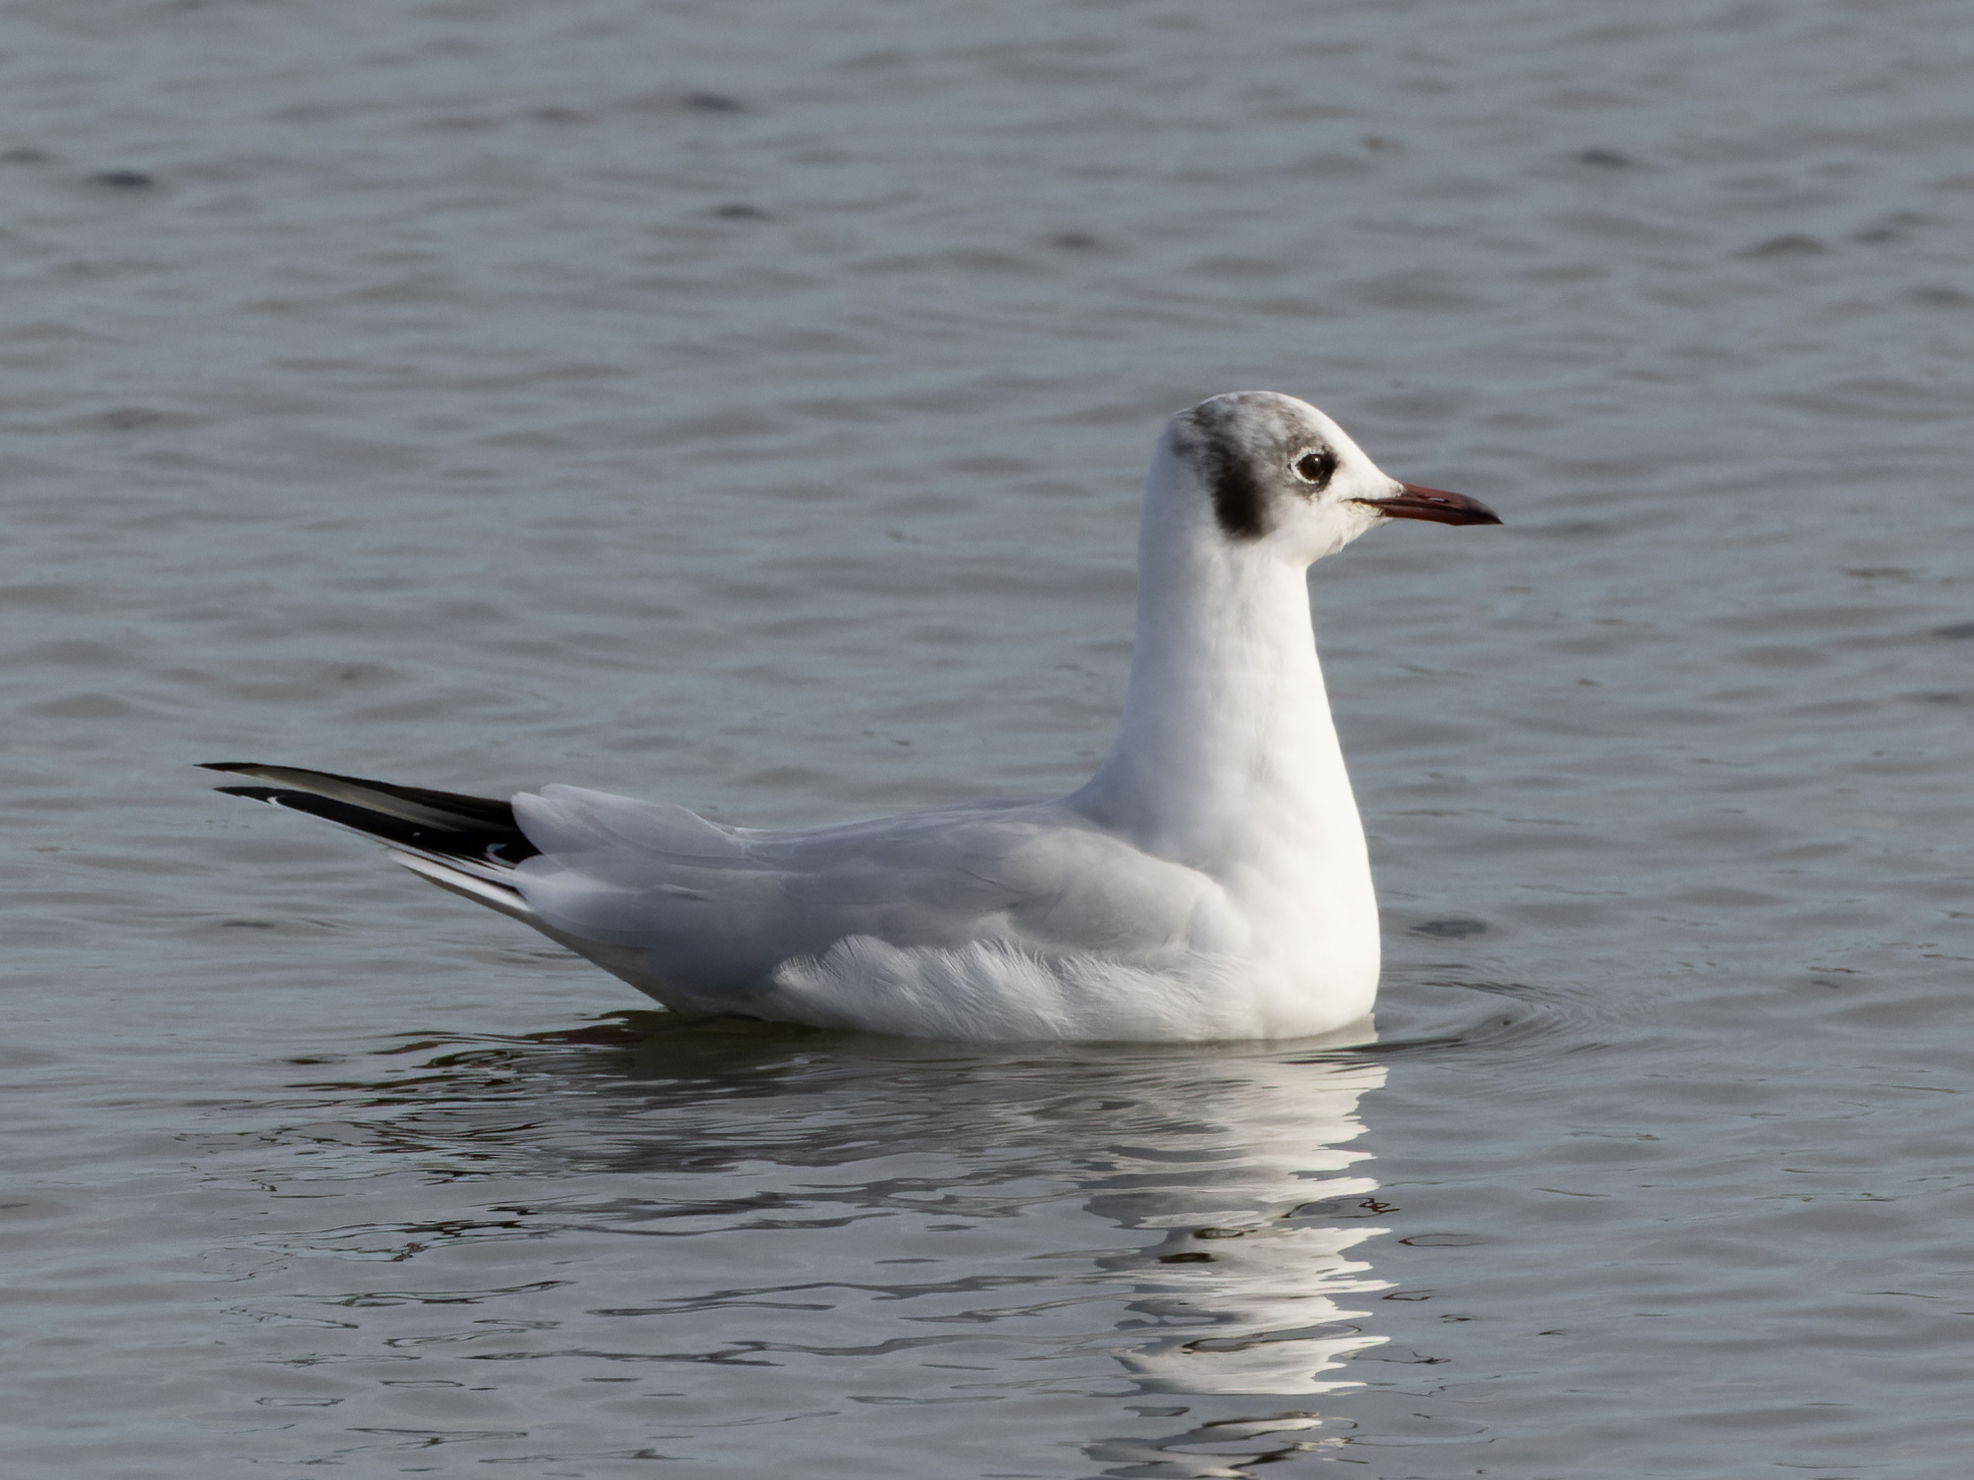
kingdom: Animalia
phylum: Chordata
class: Aves
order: Charadriiformes
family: Laridae
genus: Chroicocephalus
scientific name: Chroicocephalus ridibundus
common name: Black-headed gull
